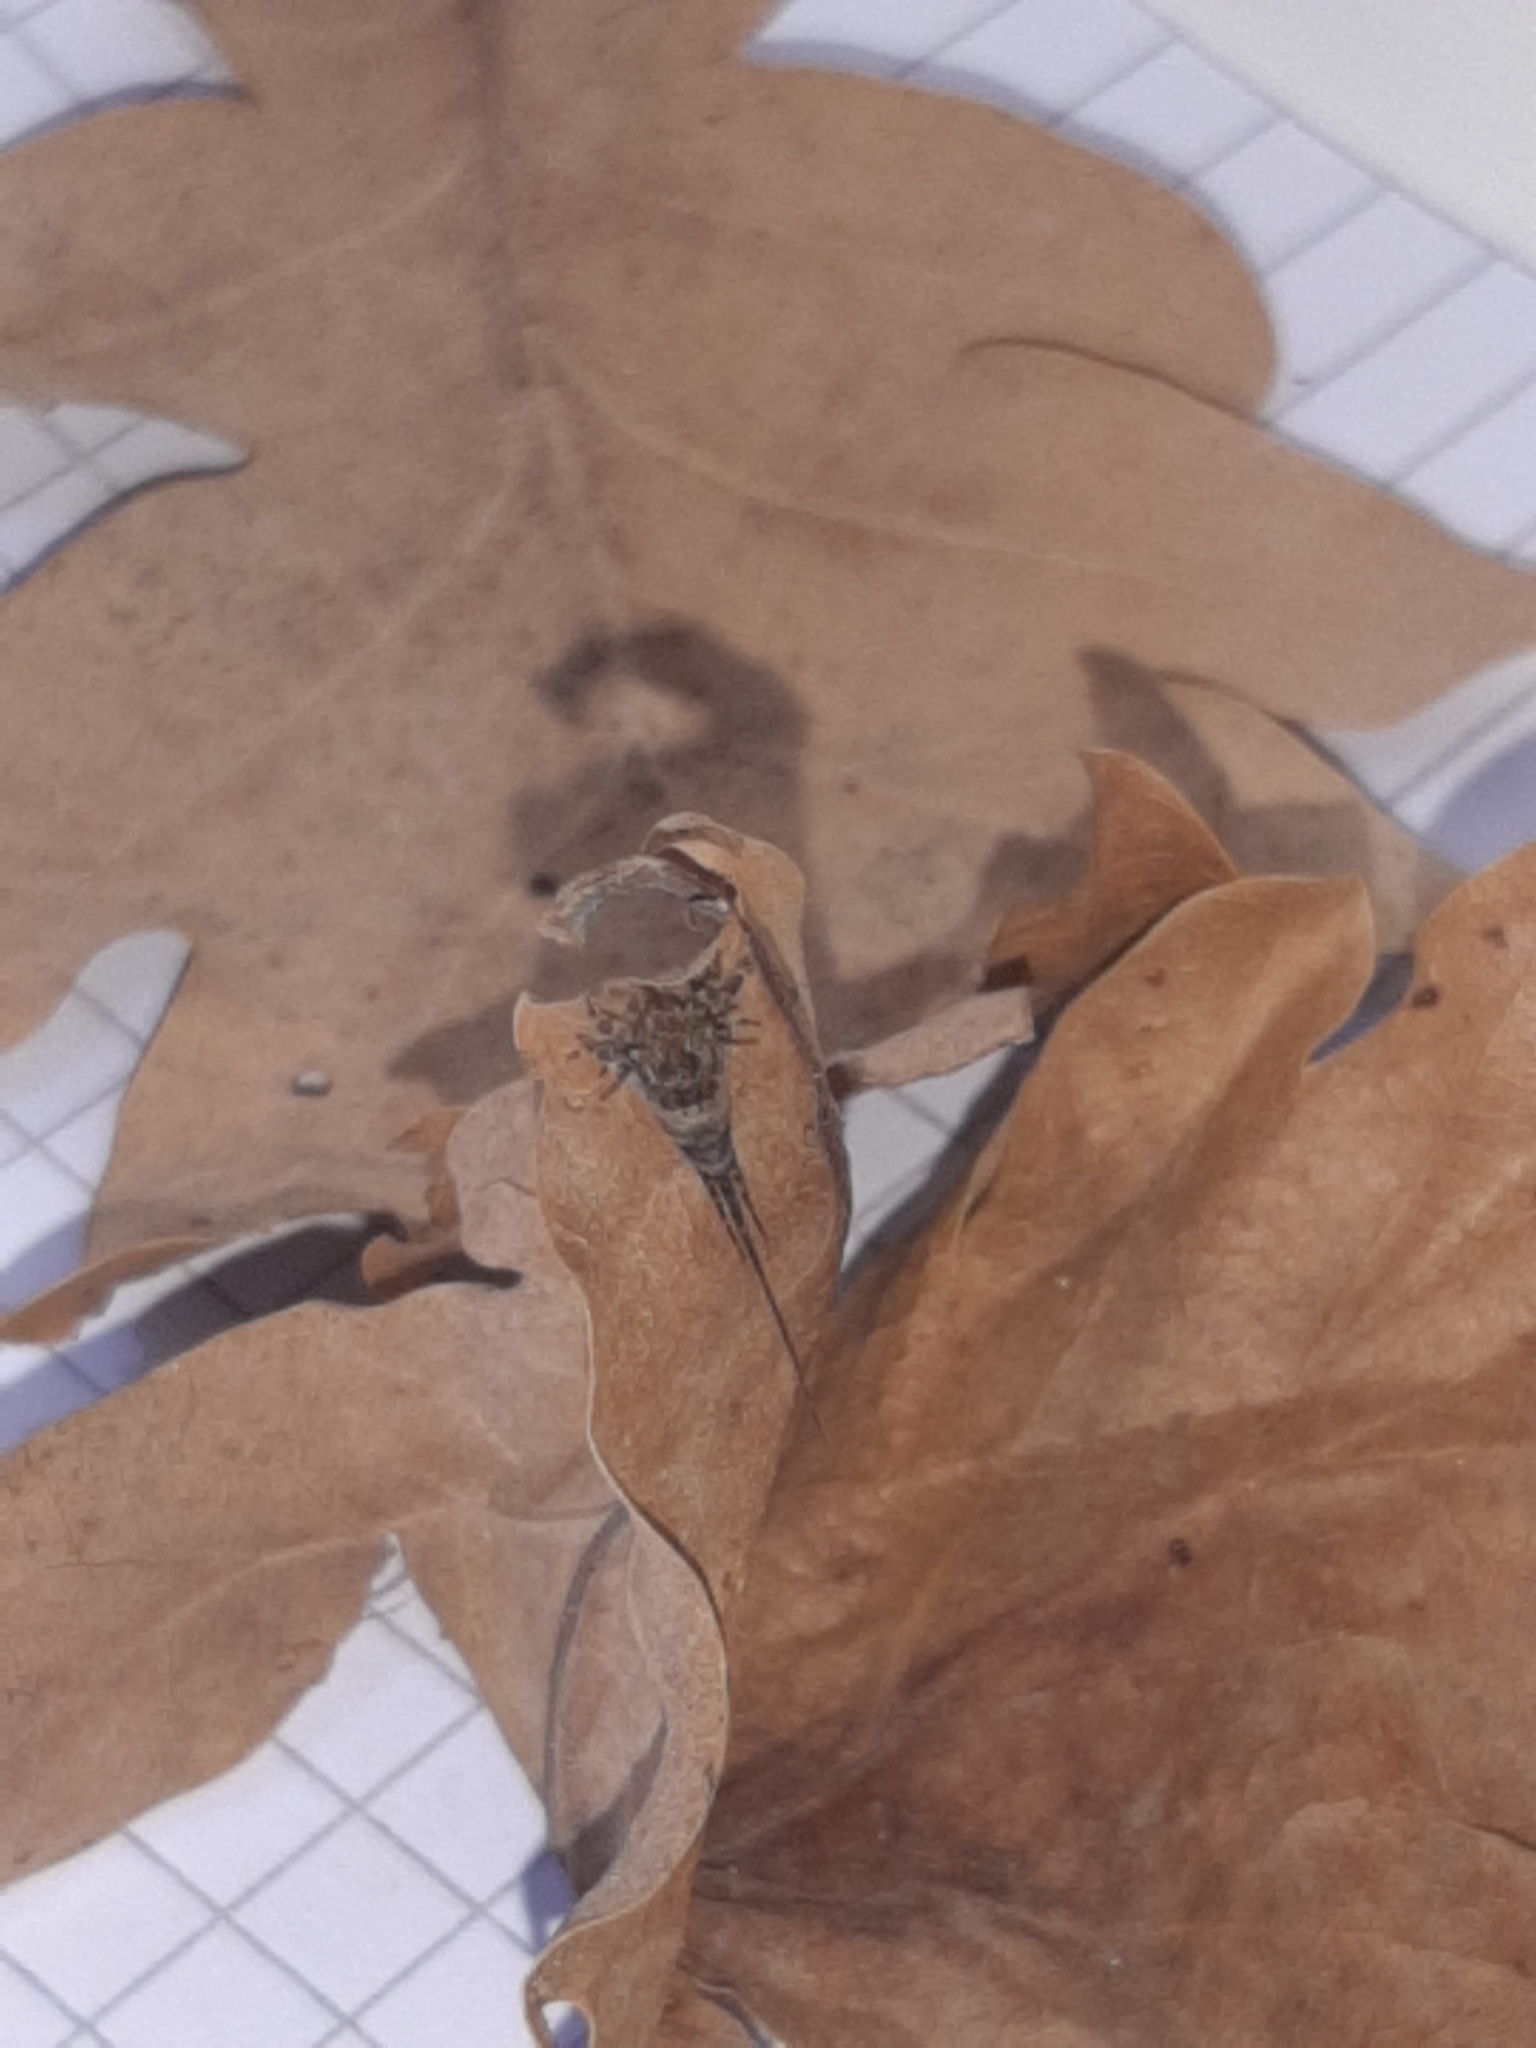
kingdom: Animalia
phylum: Arthropoda
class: Insecta
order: Archaeognatha
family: Machilidae
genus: Trigoniophthalmus
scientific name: Trigoniophthalmus alternatus
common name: Jumping bristletail
